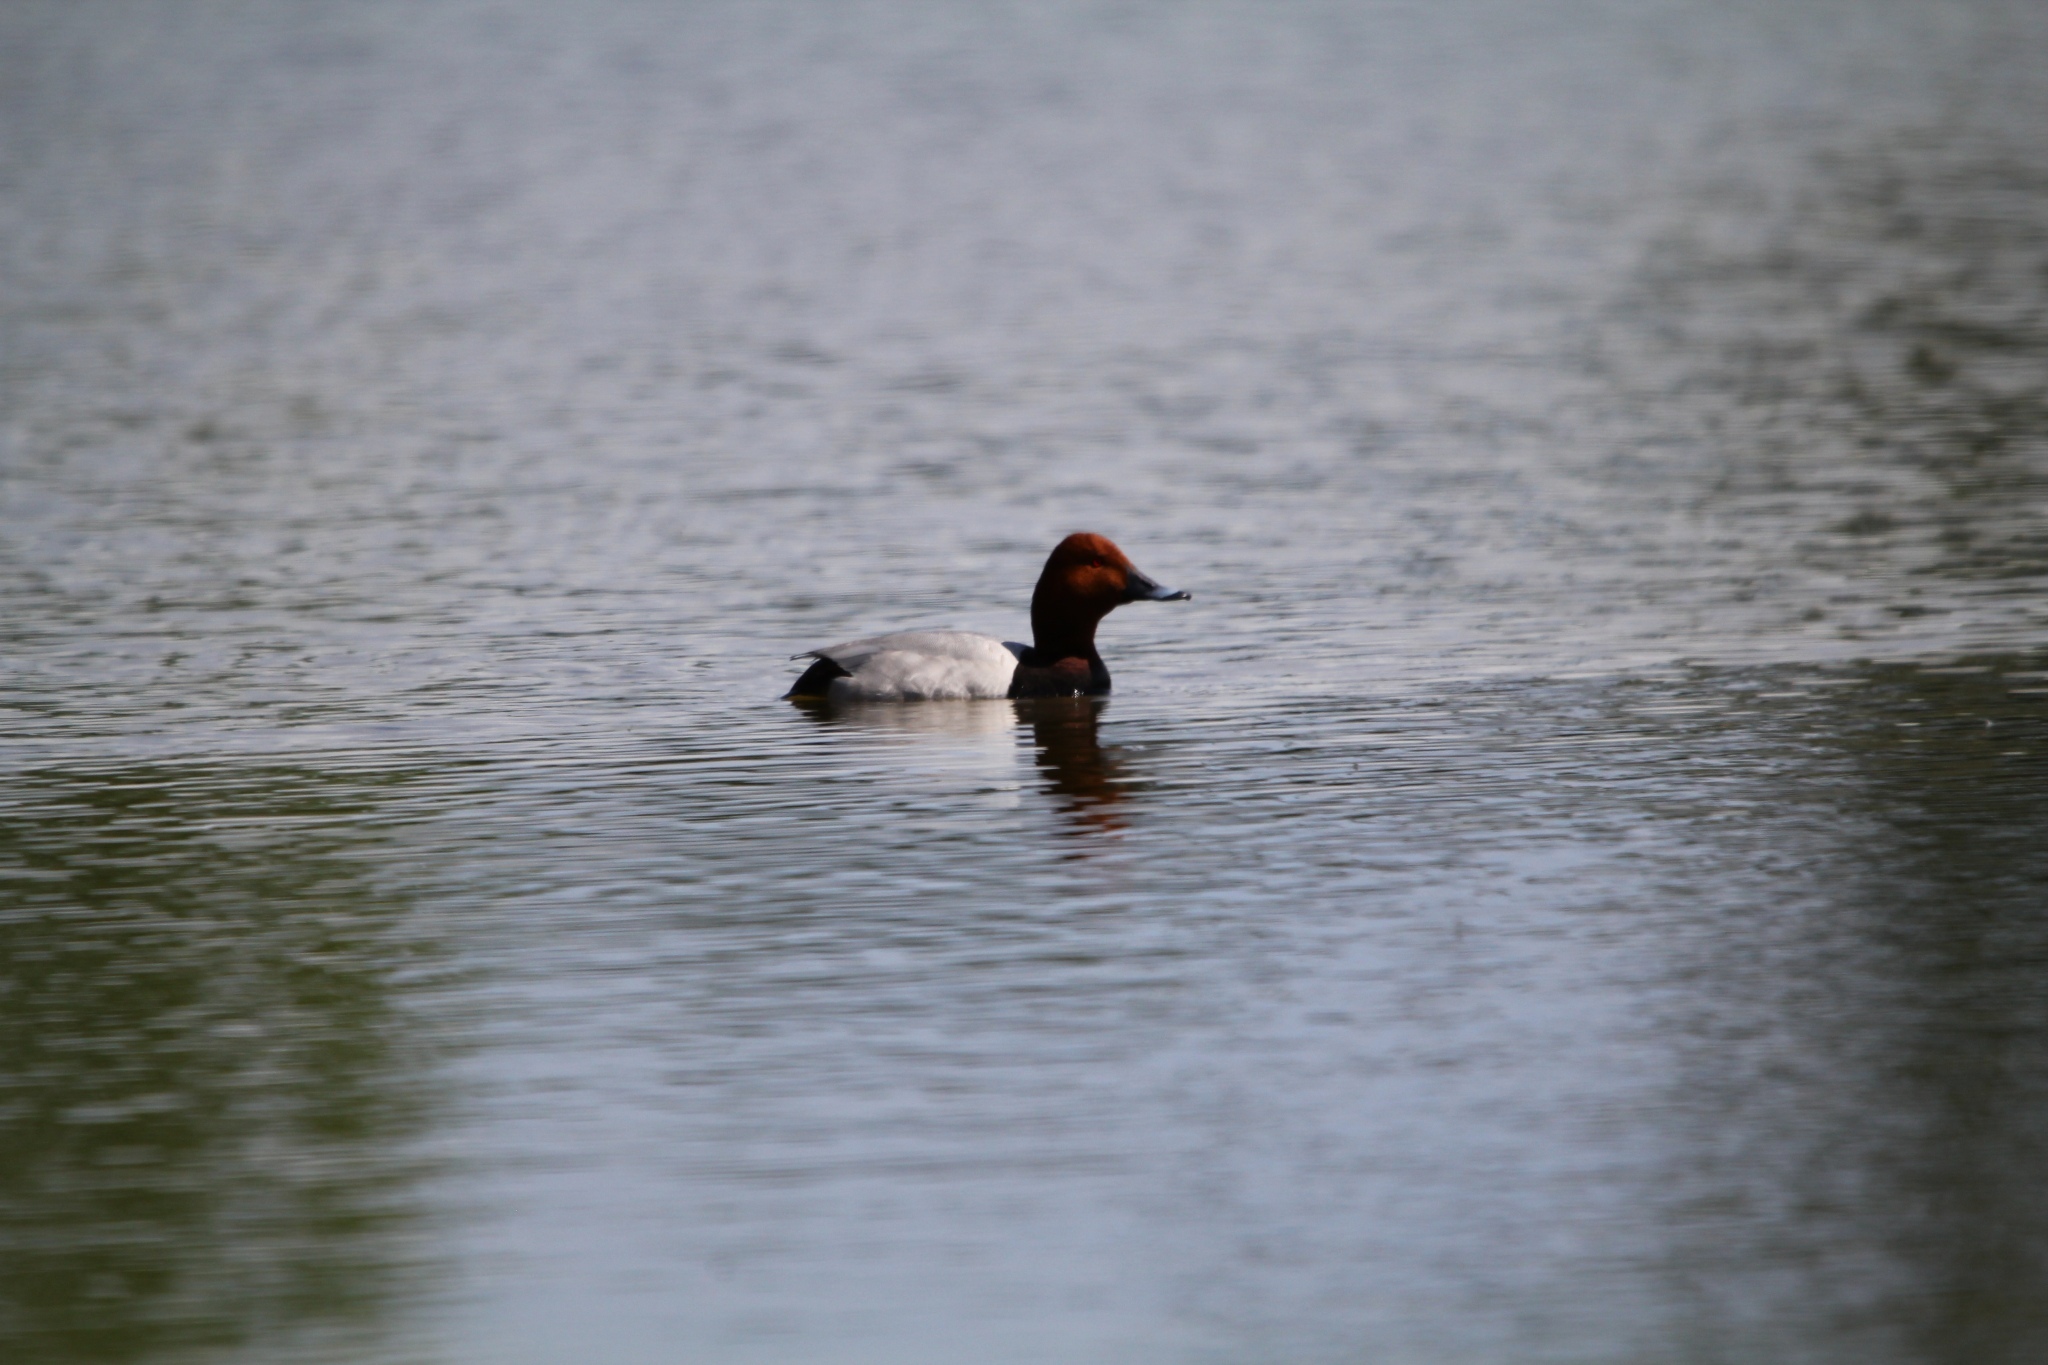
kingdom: Animalia
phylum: Chordata
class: Aves
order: Anseriformes
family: Anatidae
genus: Aythya
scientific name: Aythya ferina
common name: Common pochard
